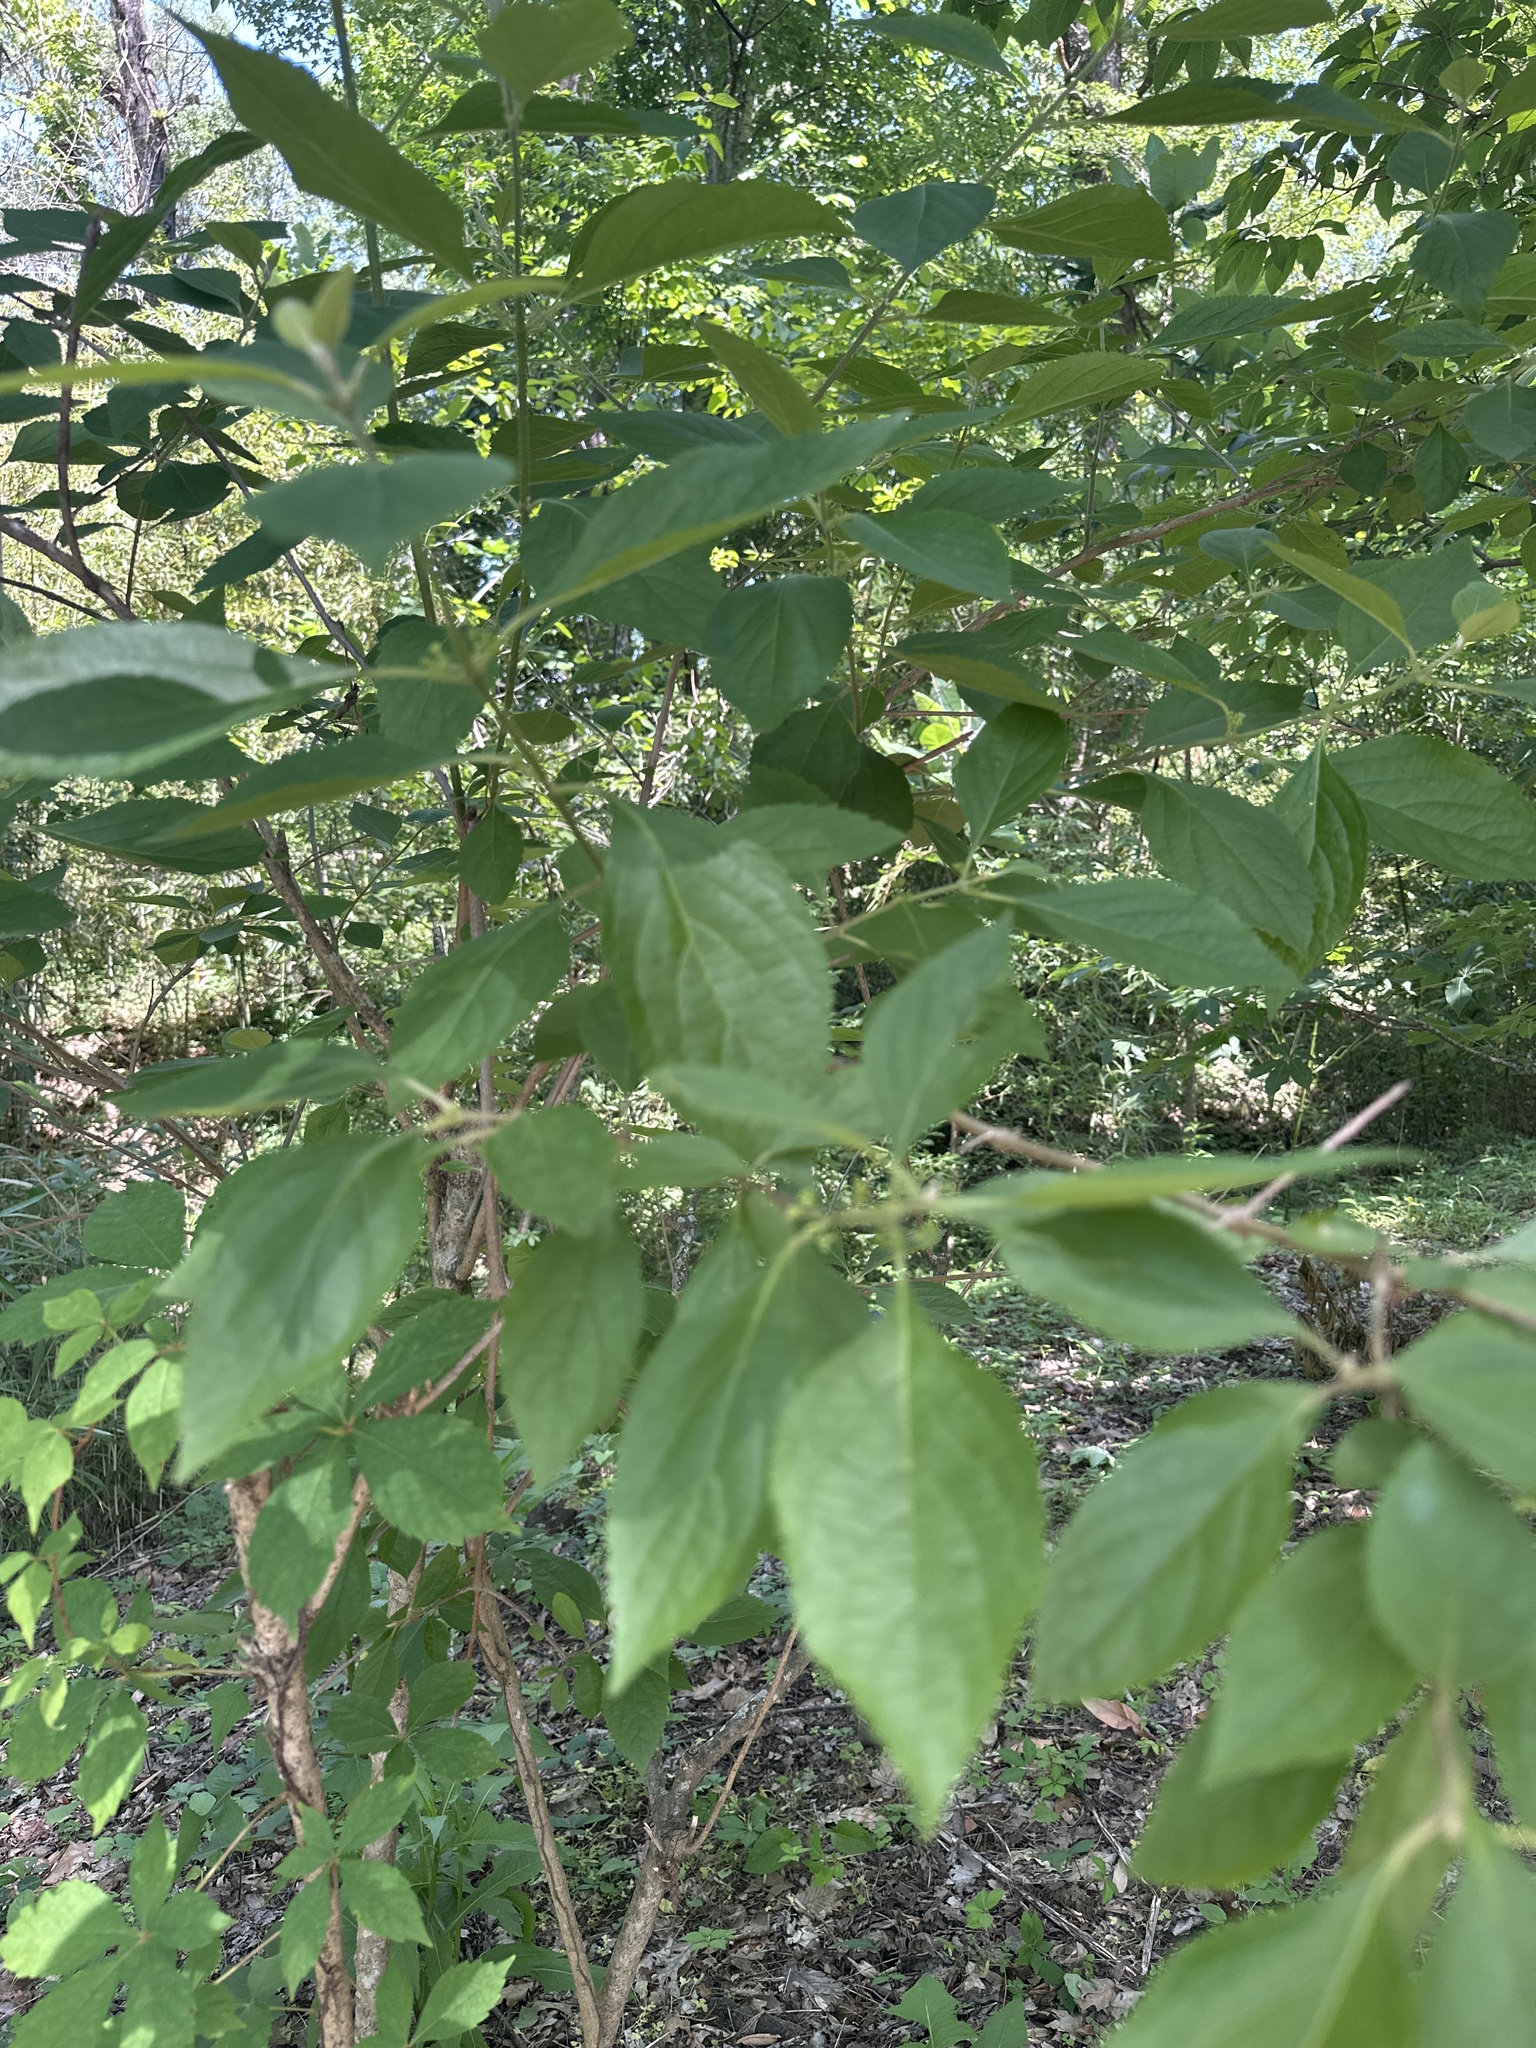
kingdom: Plantae
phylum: Tracheophyta
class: Magnoliopsida
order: Lamiales
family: Lamiaceae
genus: Callicarpa
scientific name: Callicarpa americana
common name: American beautyberry
